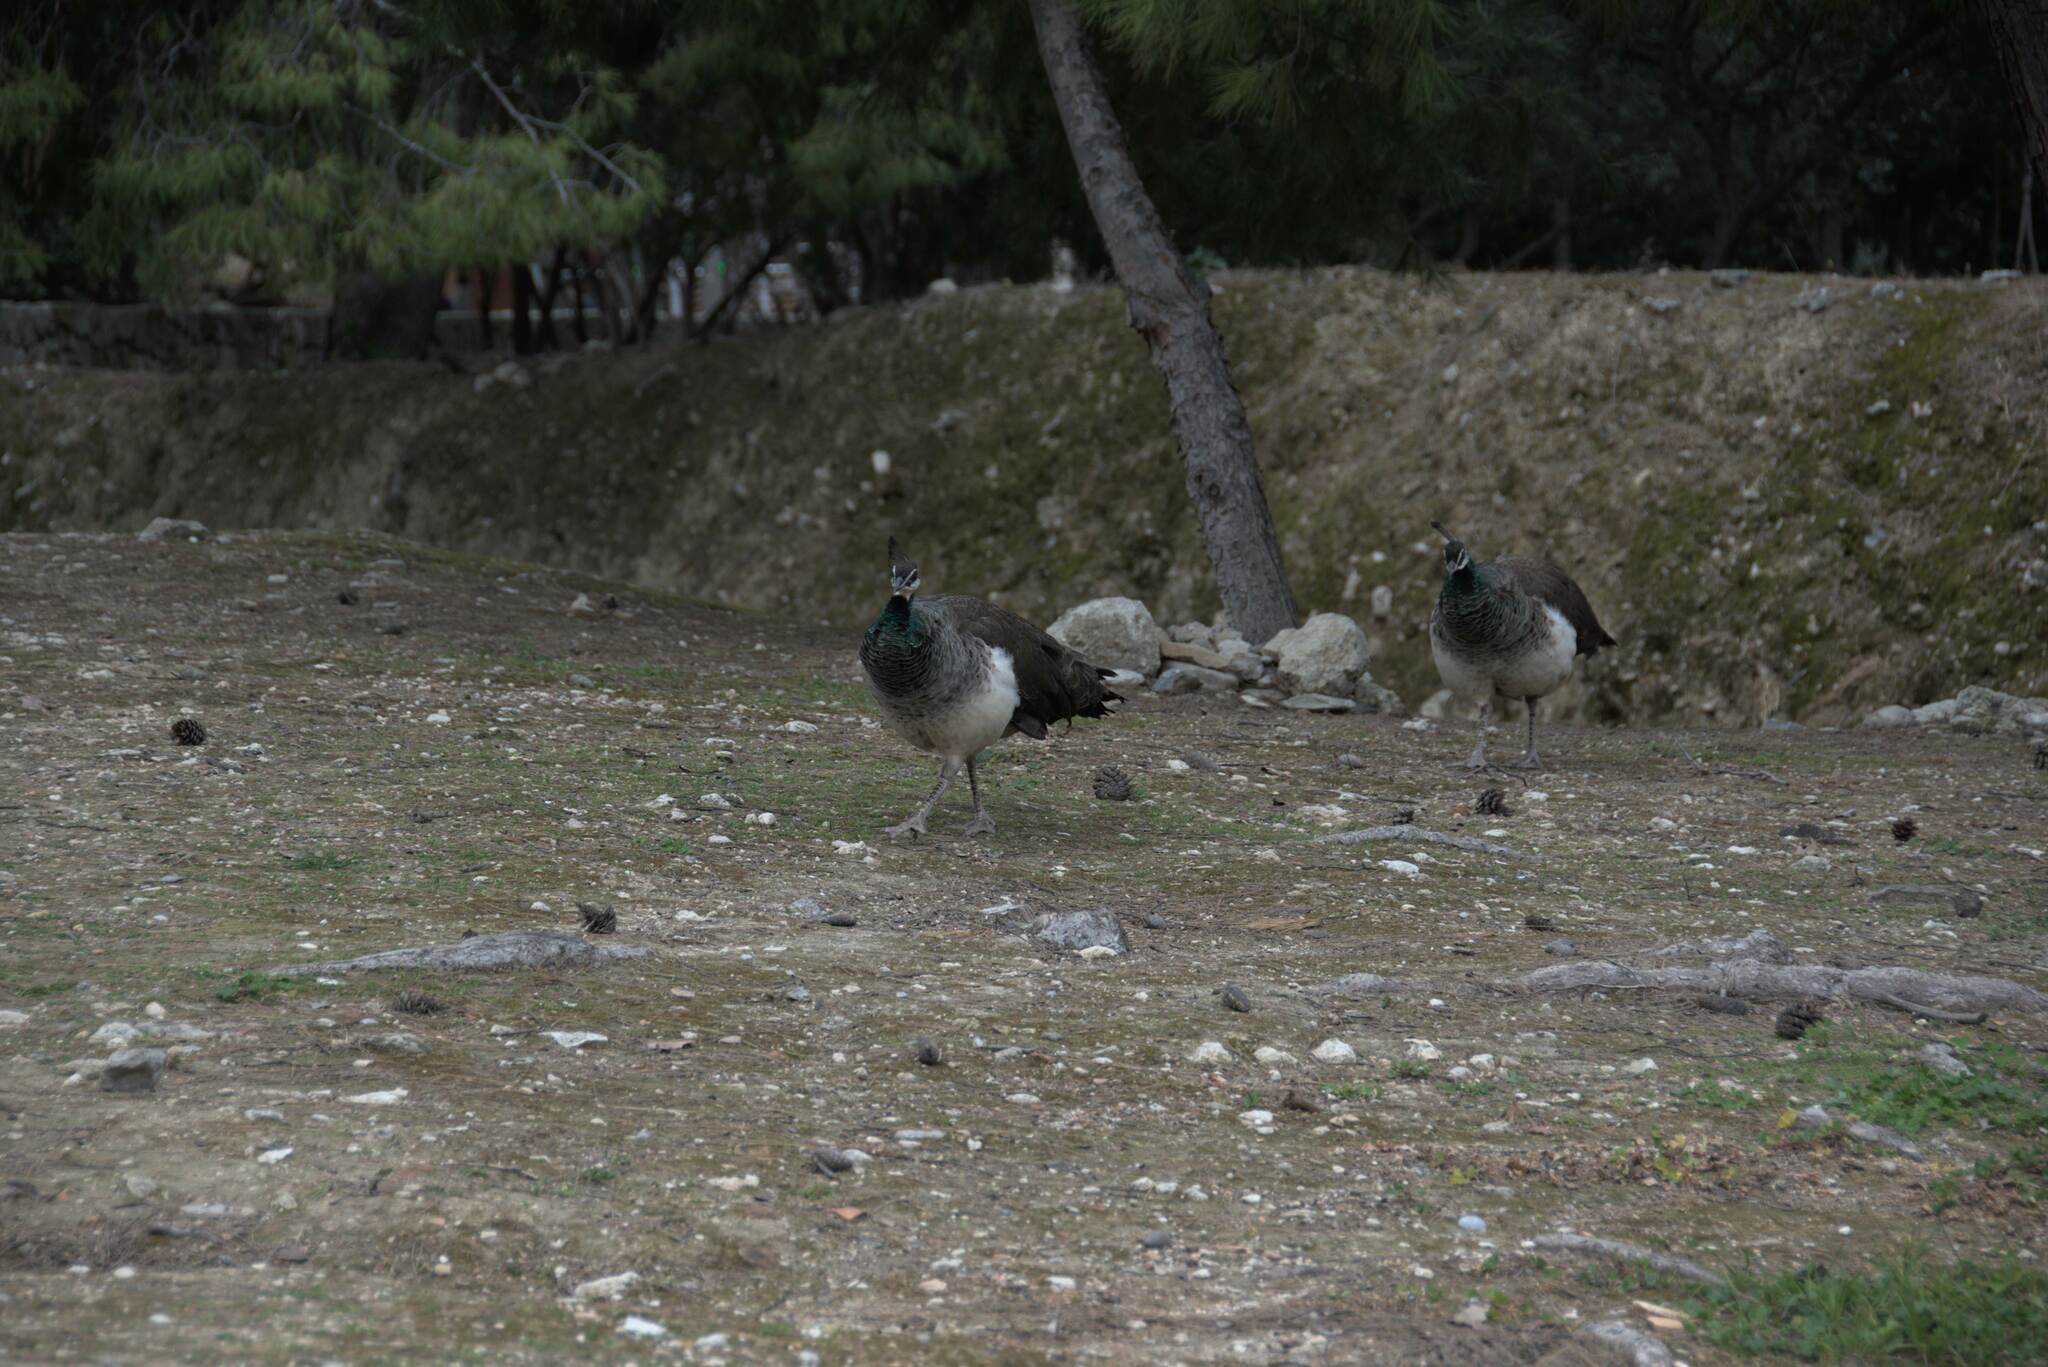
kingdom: Animalia
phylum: Chordata
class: Aves
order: Galliformes
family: Phasianidae
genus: Pavo
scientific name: Pavo cristatus
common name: Indian peafowl
